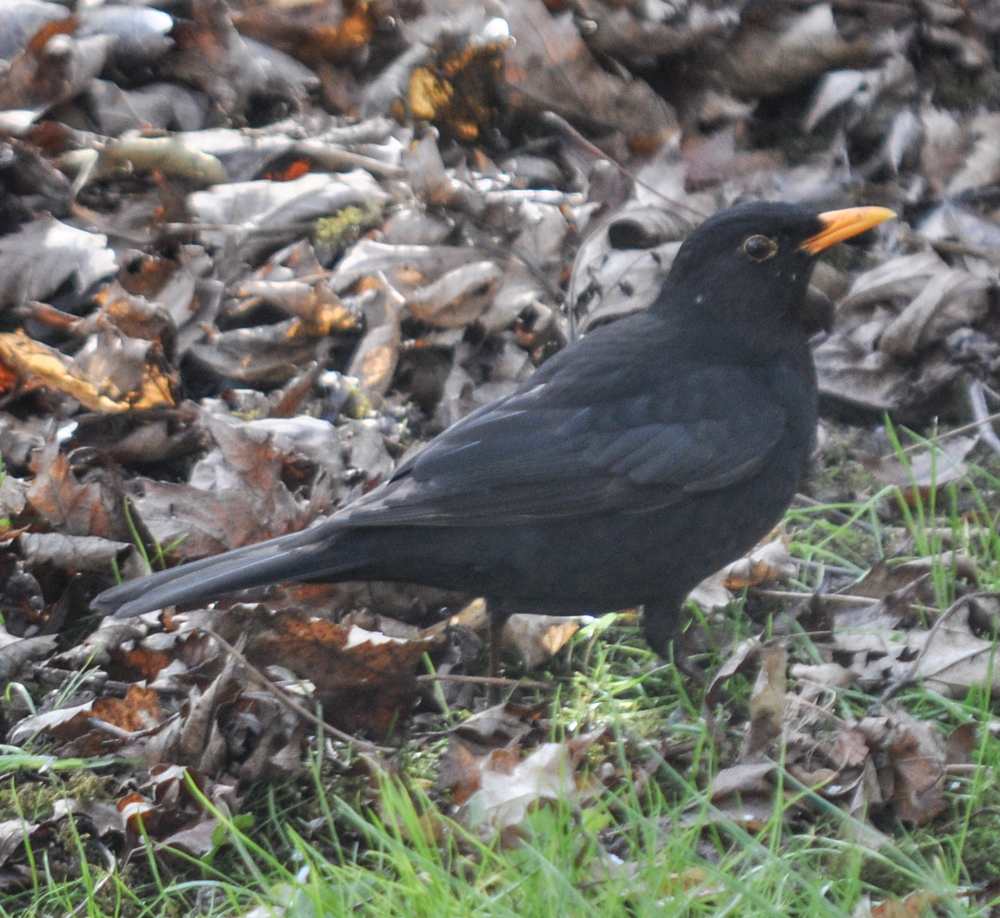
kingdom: Animalia
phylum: Chordata
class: Aves
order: Passeriformes
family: Turdidae
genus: Turdus
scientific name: Turdus merula
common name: Common blackbird
